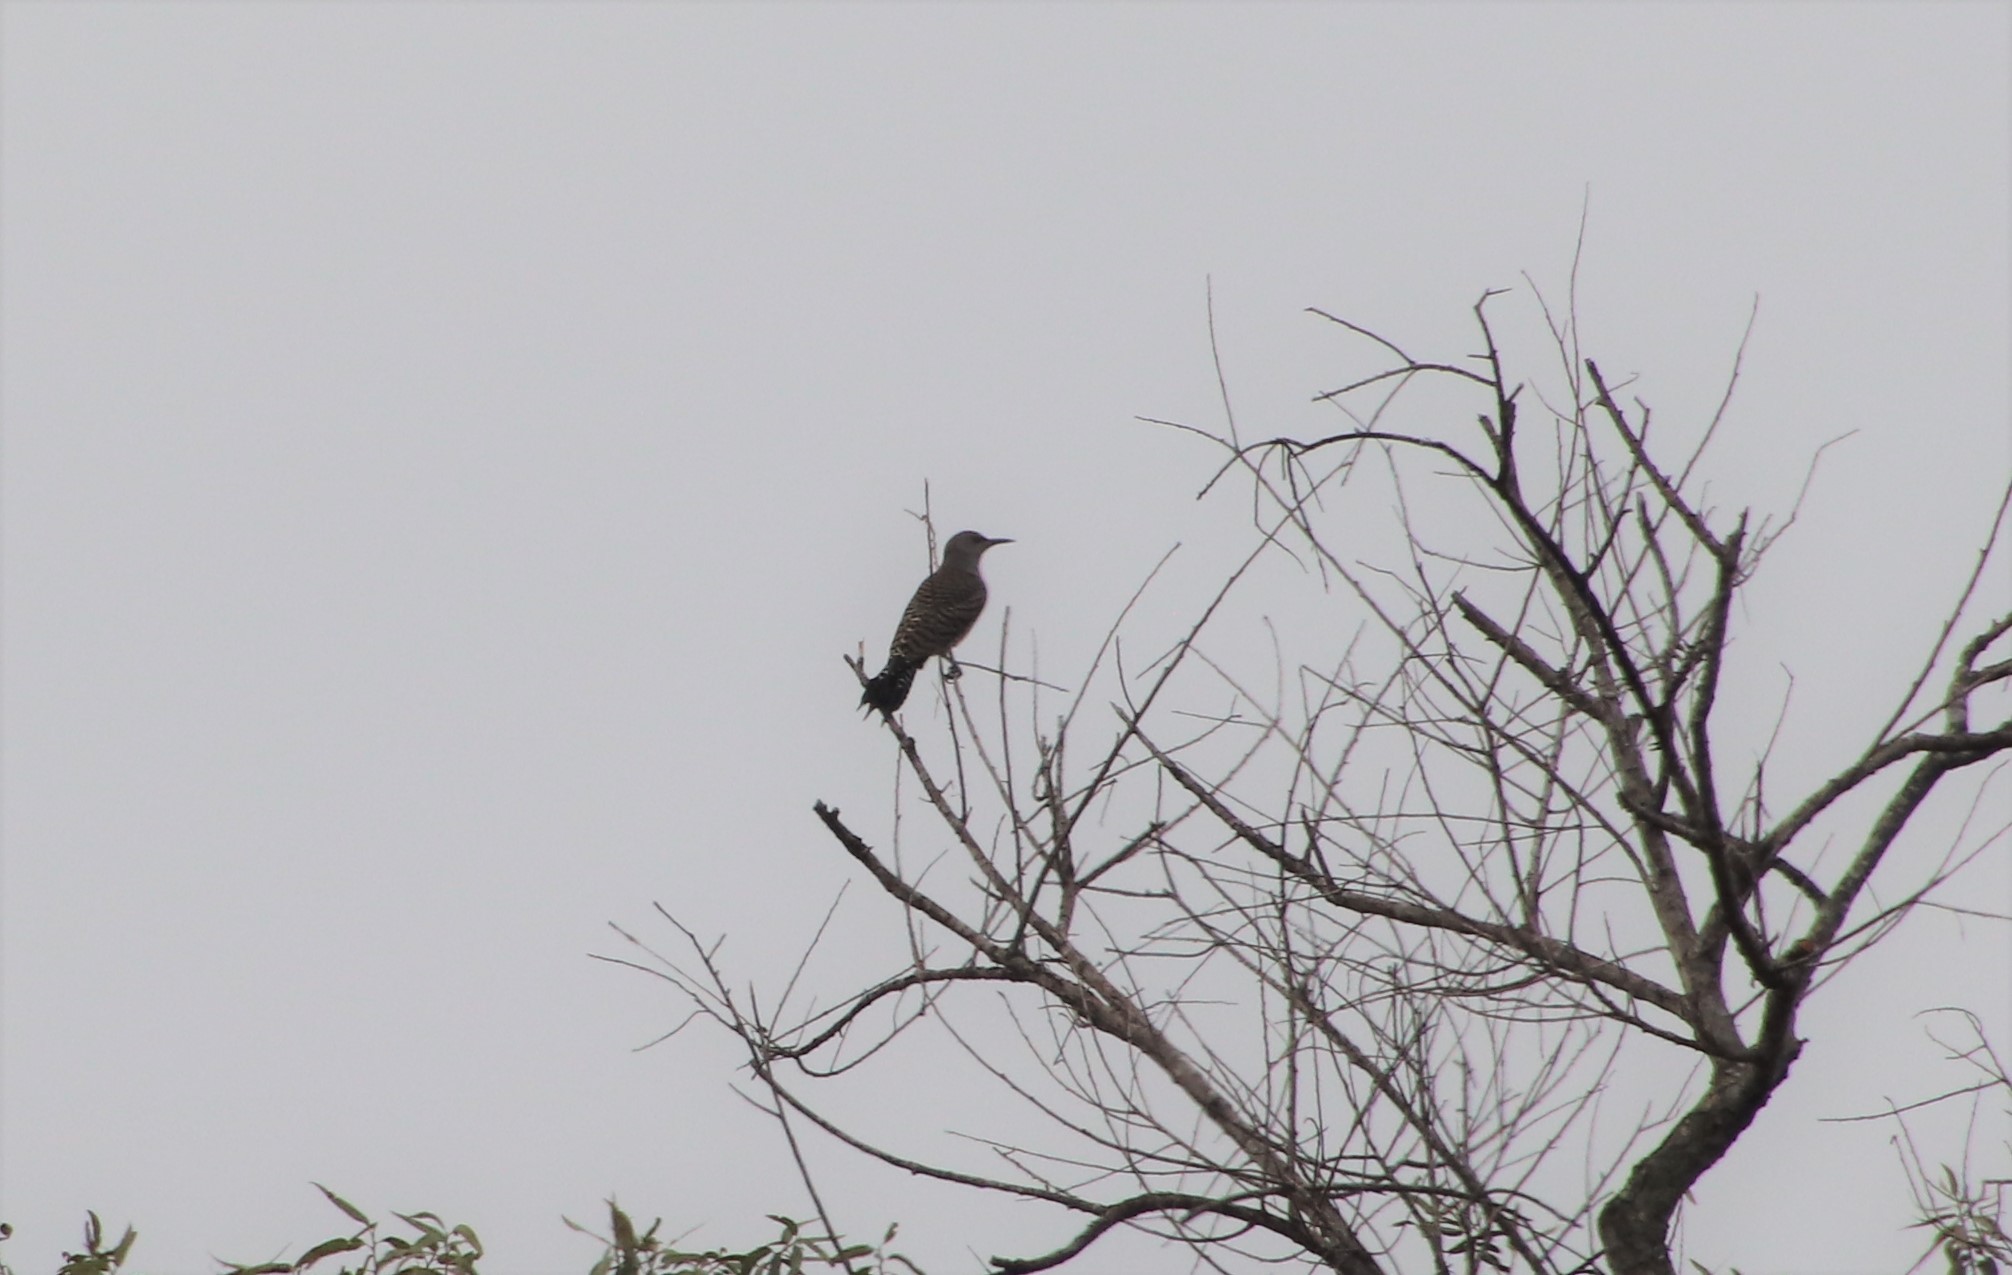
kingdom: Animalia
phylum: Chordata
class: Aves
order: Piciformes
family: Picidae
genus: Colaptes
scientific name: Colaptes auratus
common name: Northern flicker
